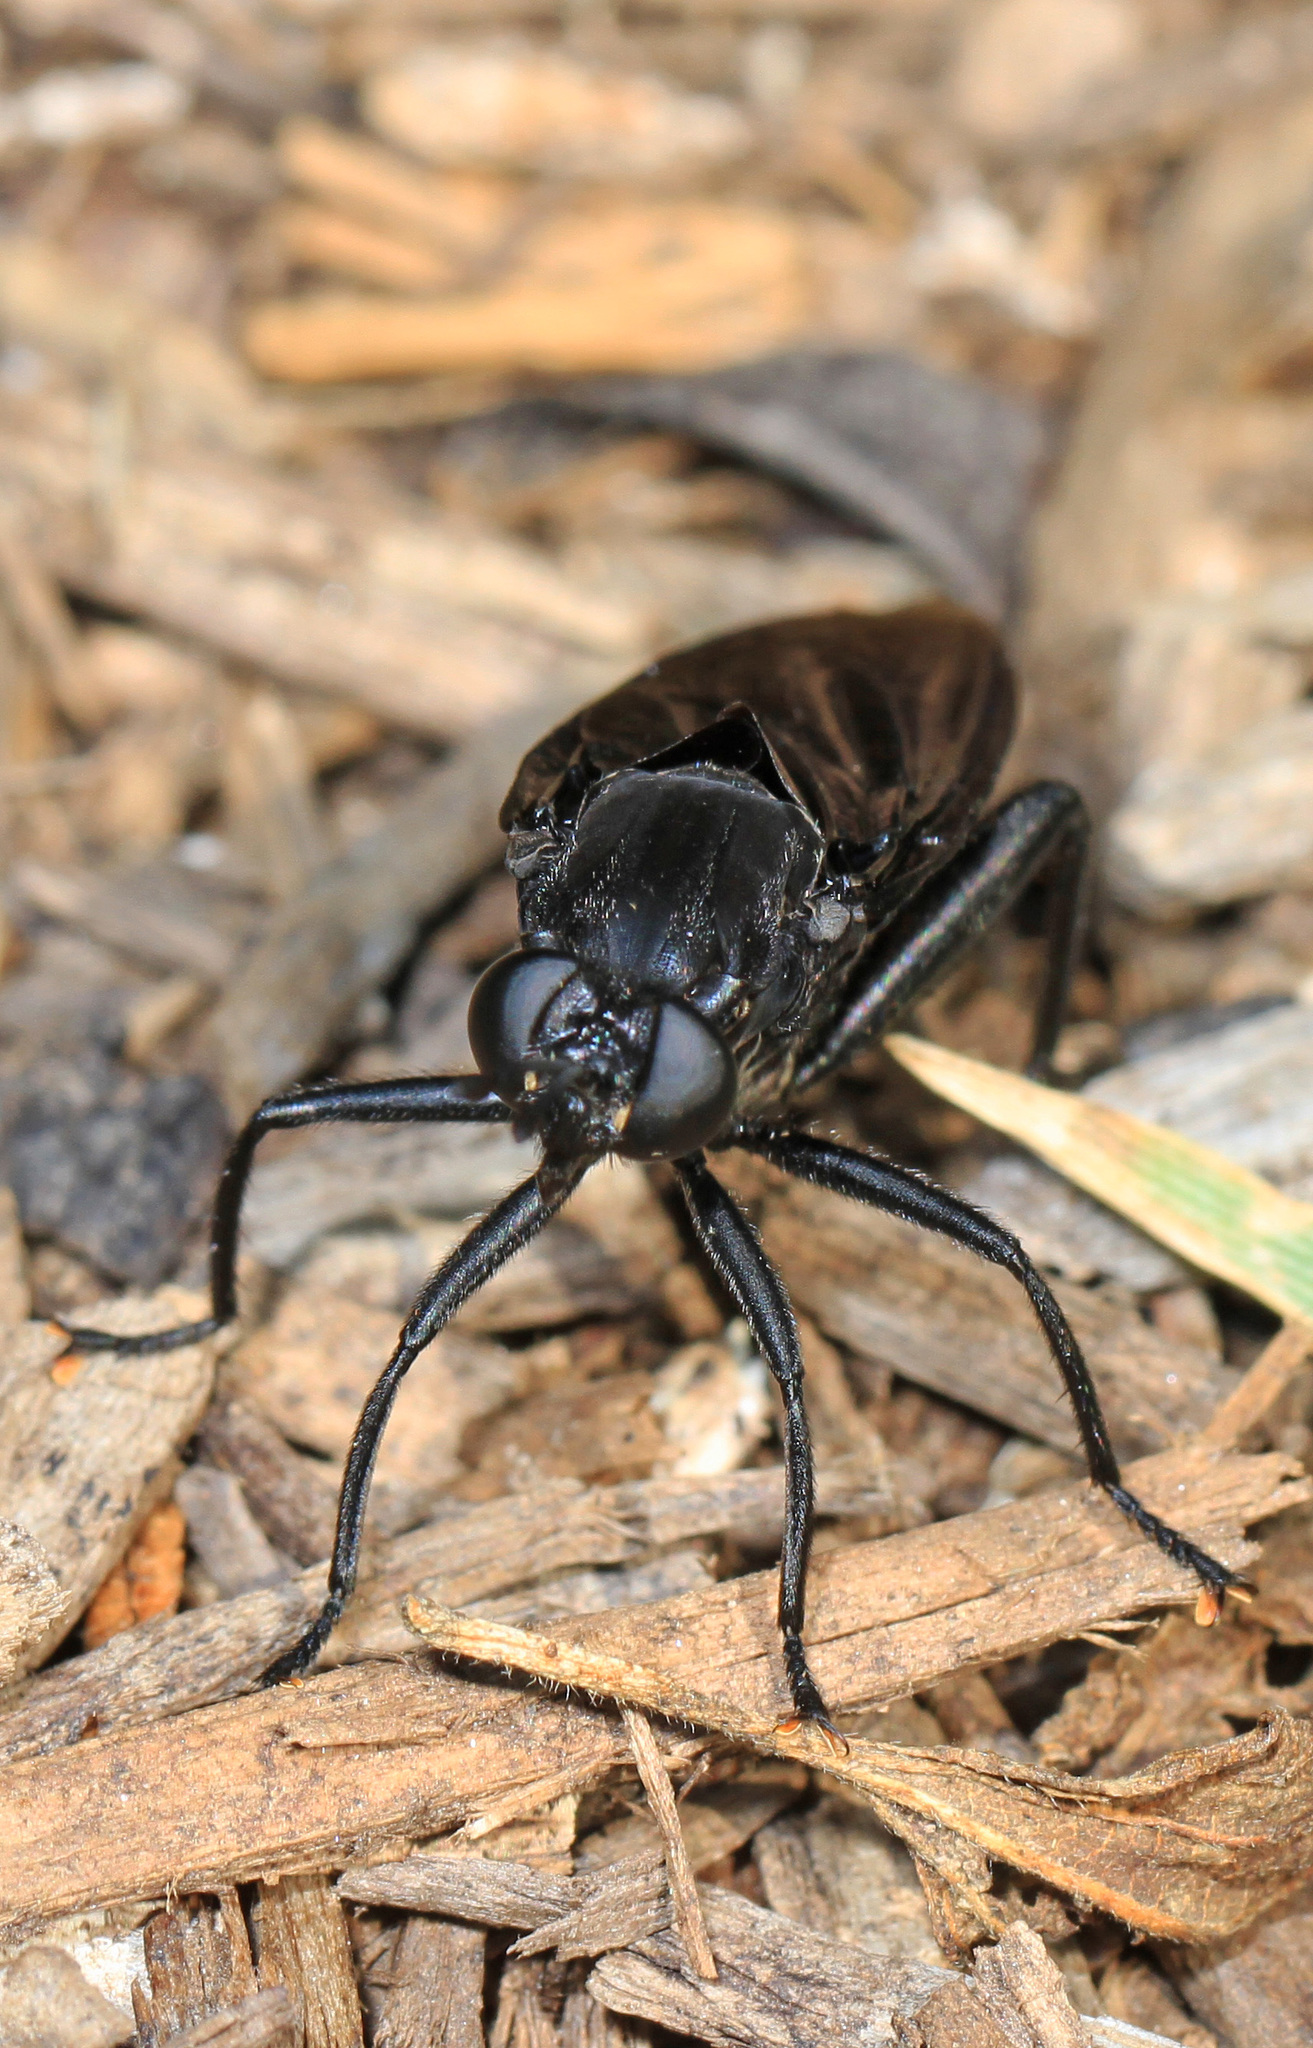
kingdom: Animalia
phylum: Arthropoda
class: Insecta
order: Diptera
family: Mydidae
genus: Mydas
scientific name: Mydas clavatus
